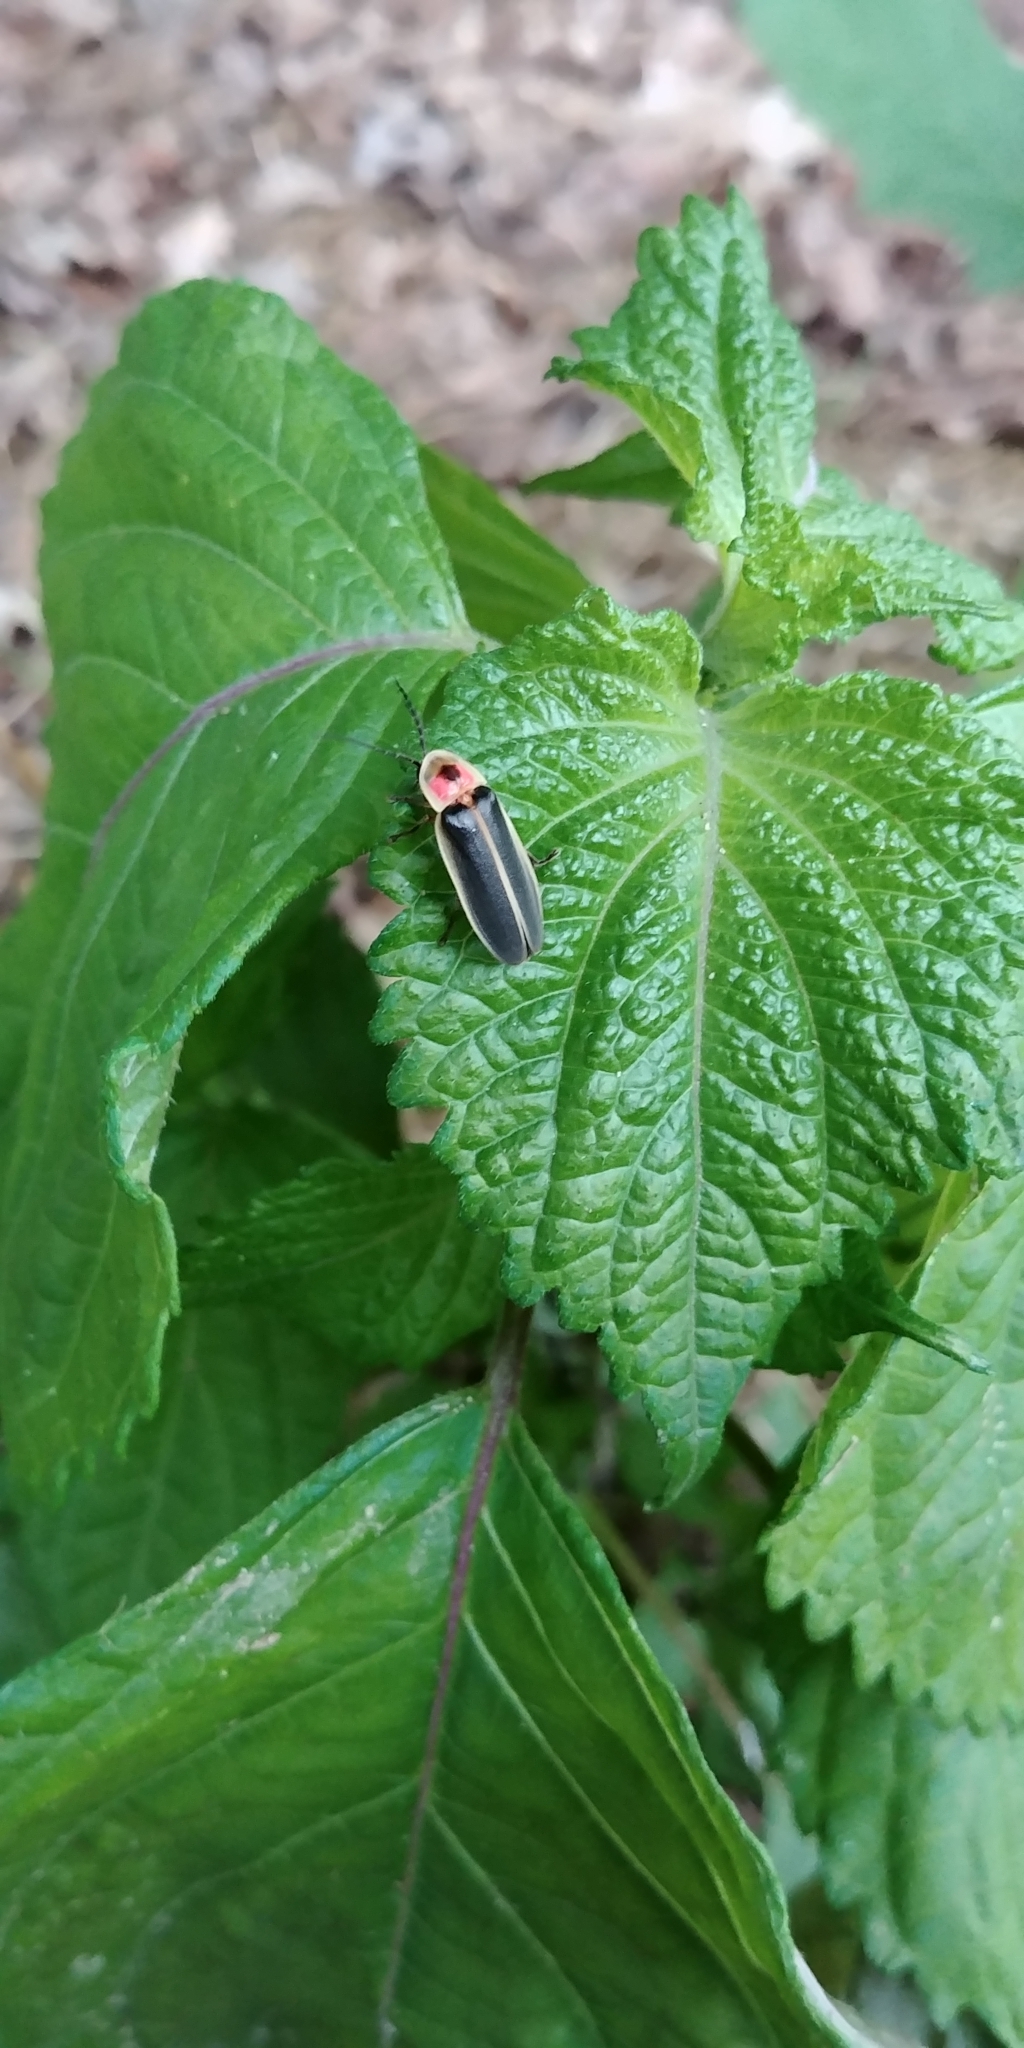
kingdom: Animalia
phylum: Arthropoda
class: Insecta
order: Coleoptera
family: Lampyridae
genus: Photinus
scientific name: Photinus pyralis
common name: Big dipper firefly
